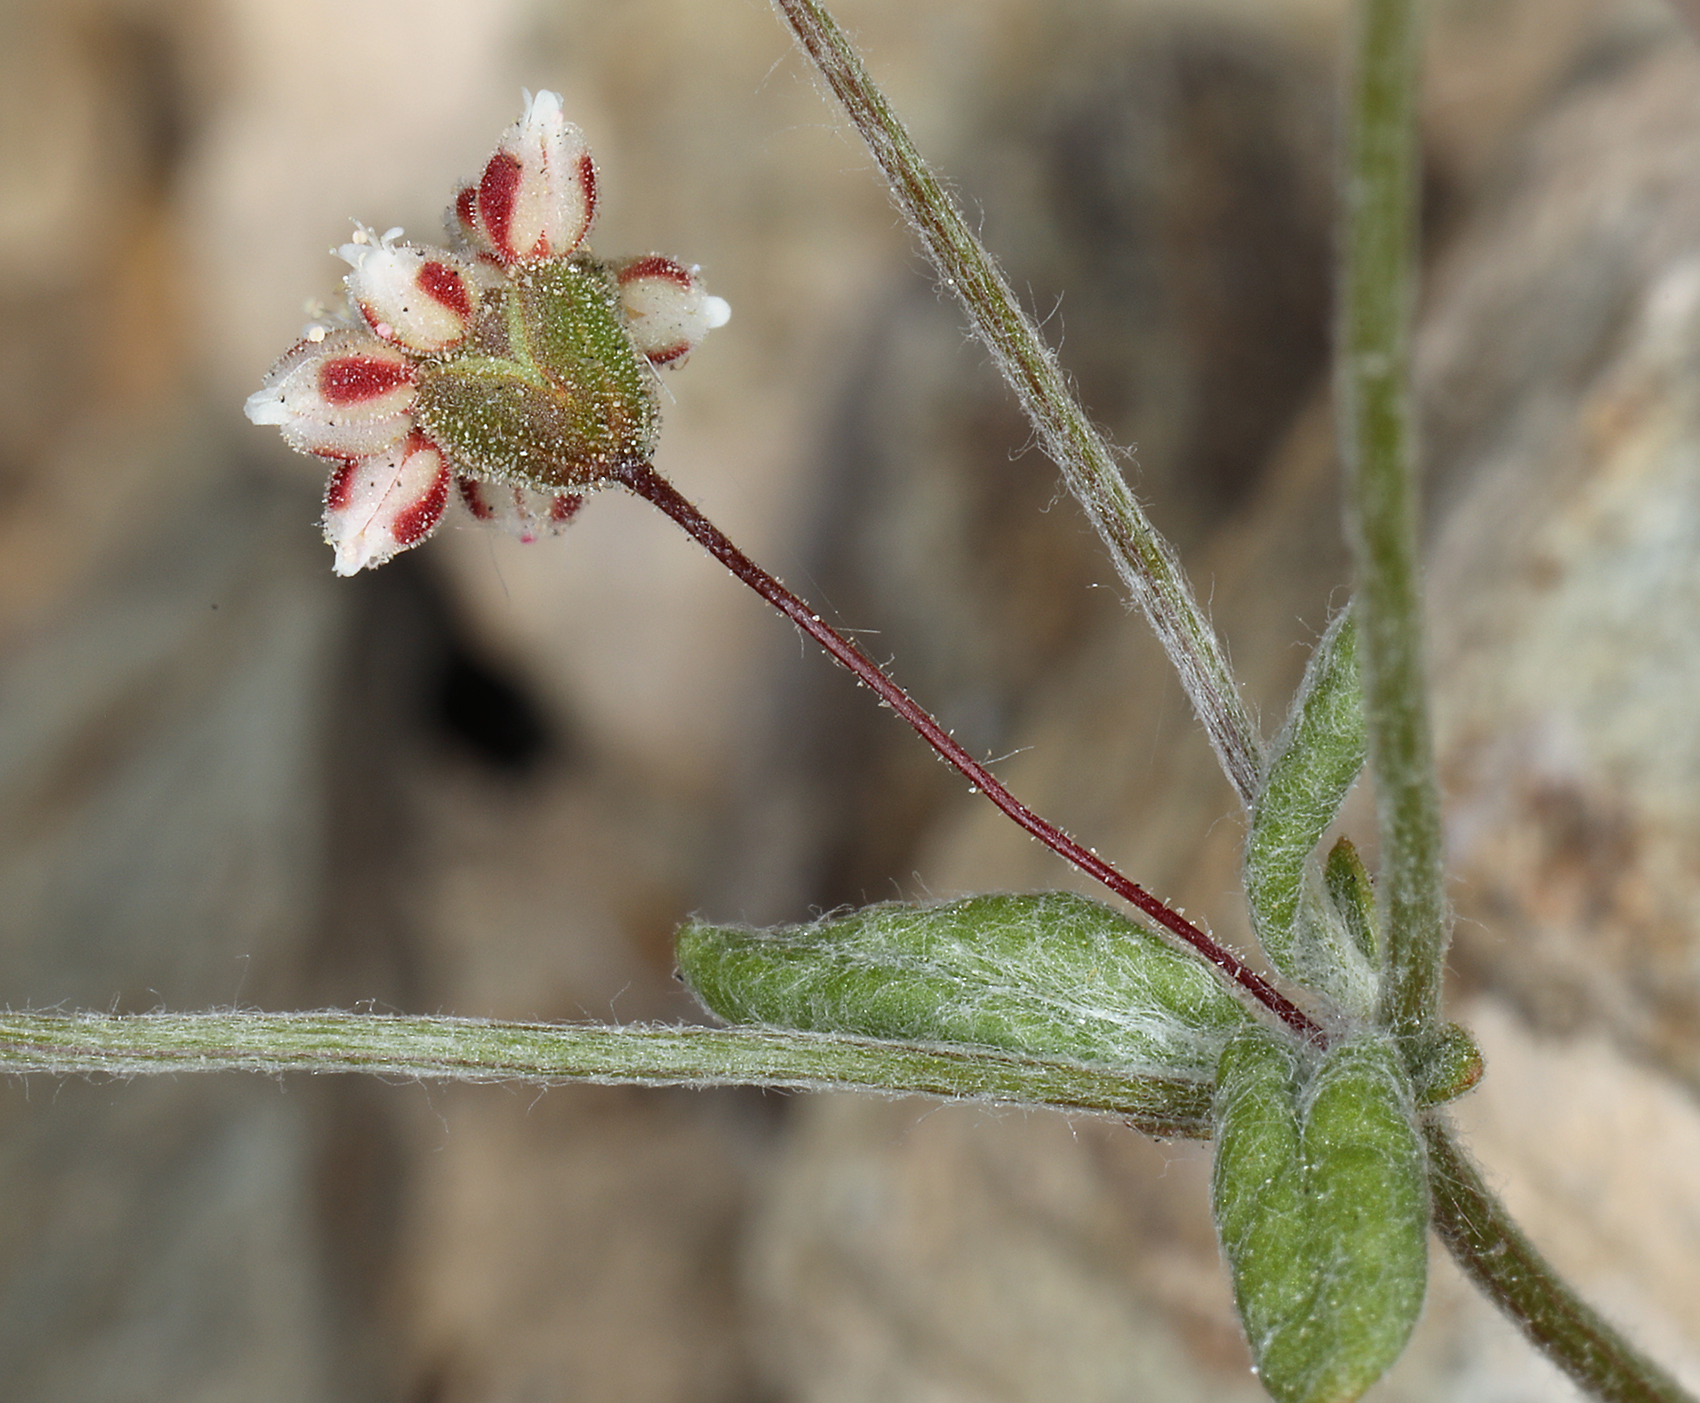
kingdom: Plantae
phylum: Tracheophyta
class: Magnoliopsida
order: Caryophyllales
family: Polygonaceae
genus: Eriogonum
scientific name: Eriogonum maculatum
